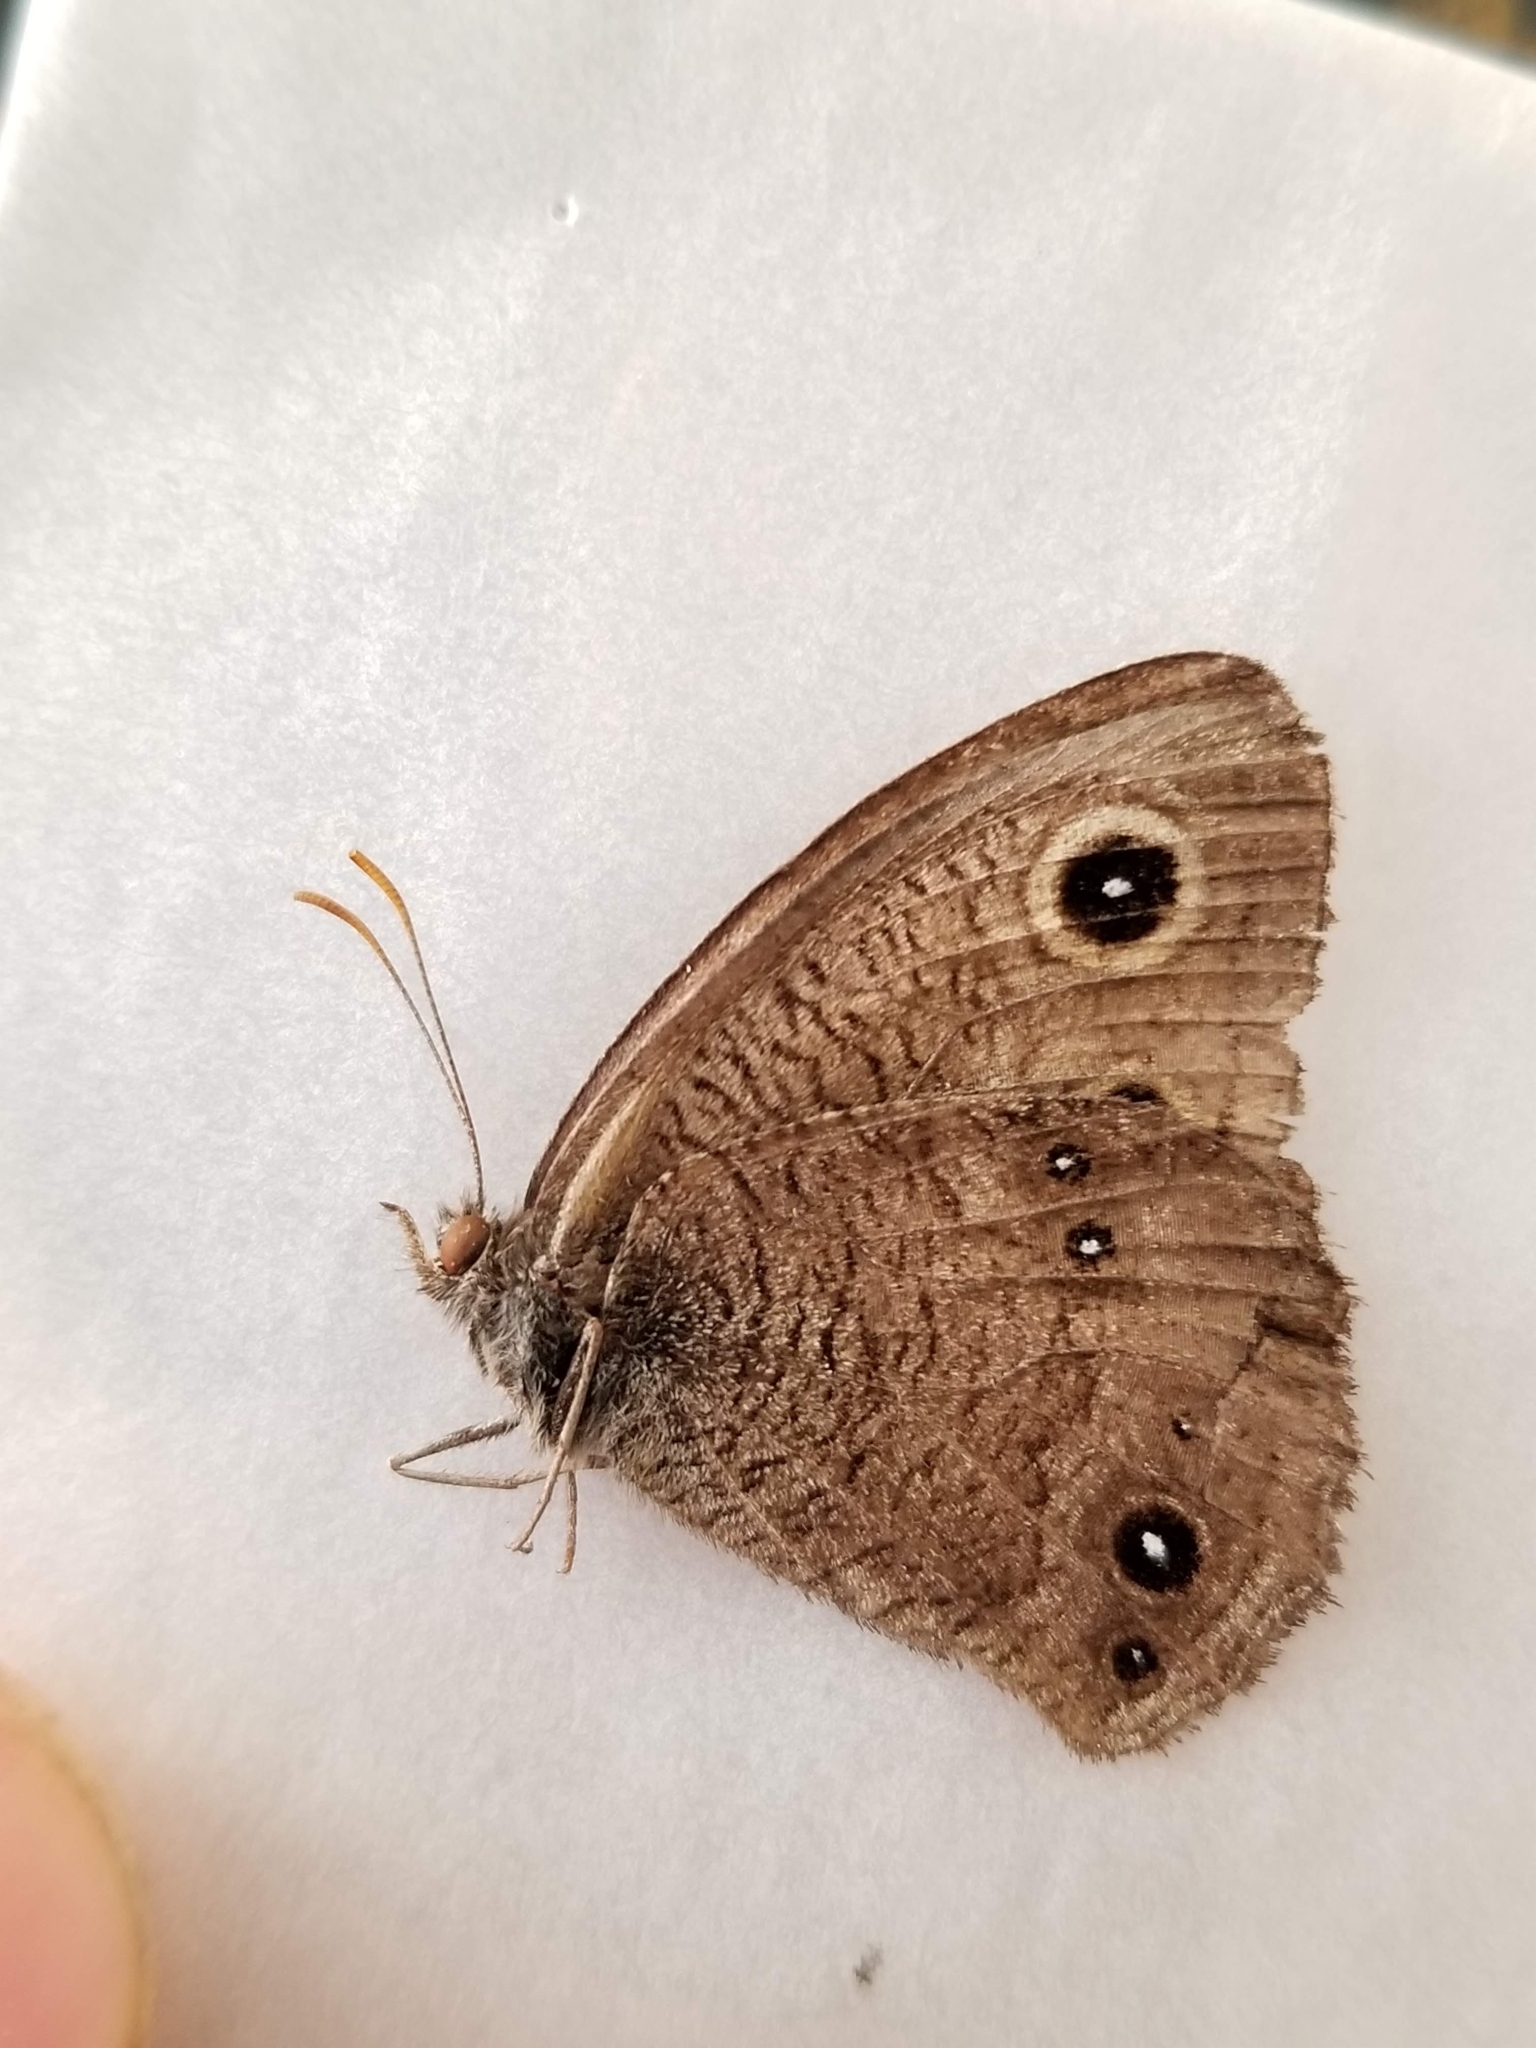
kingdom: Animalia
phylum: Arthropoda
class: Insecta
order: Lepidoptera
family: Nymphalidae
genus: Cercyonis
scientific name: Cercyonis sthenele
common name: Great basin wood-nymph
